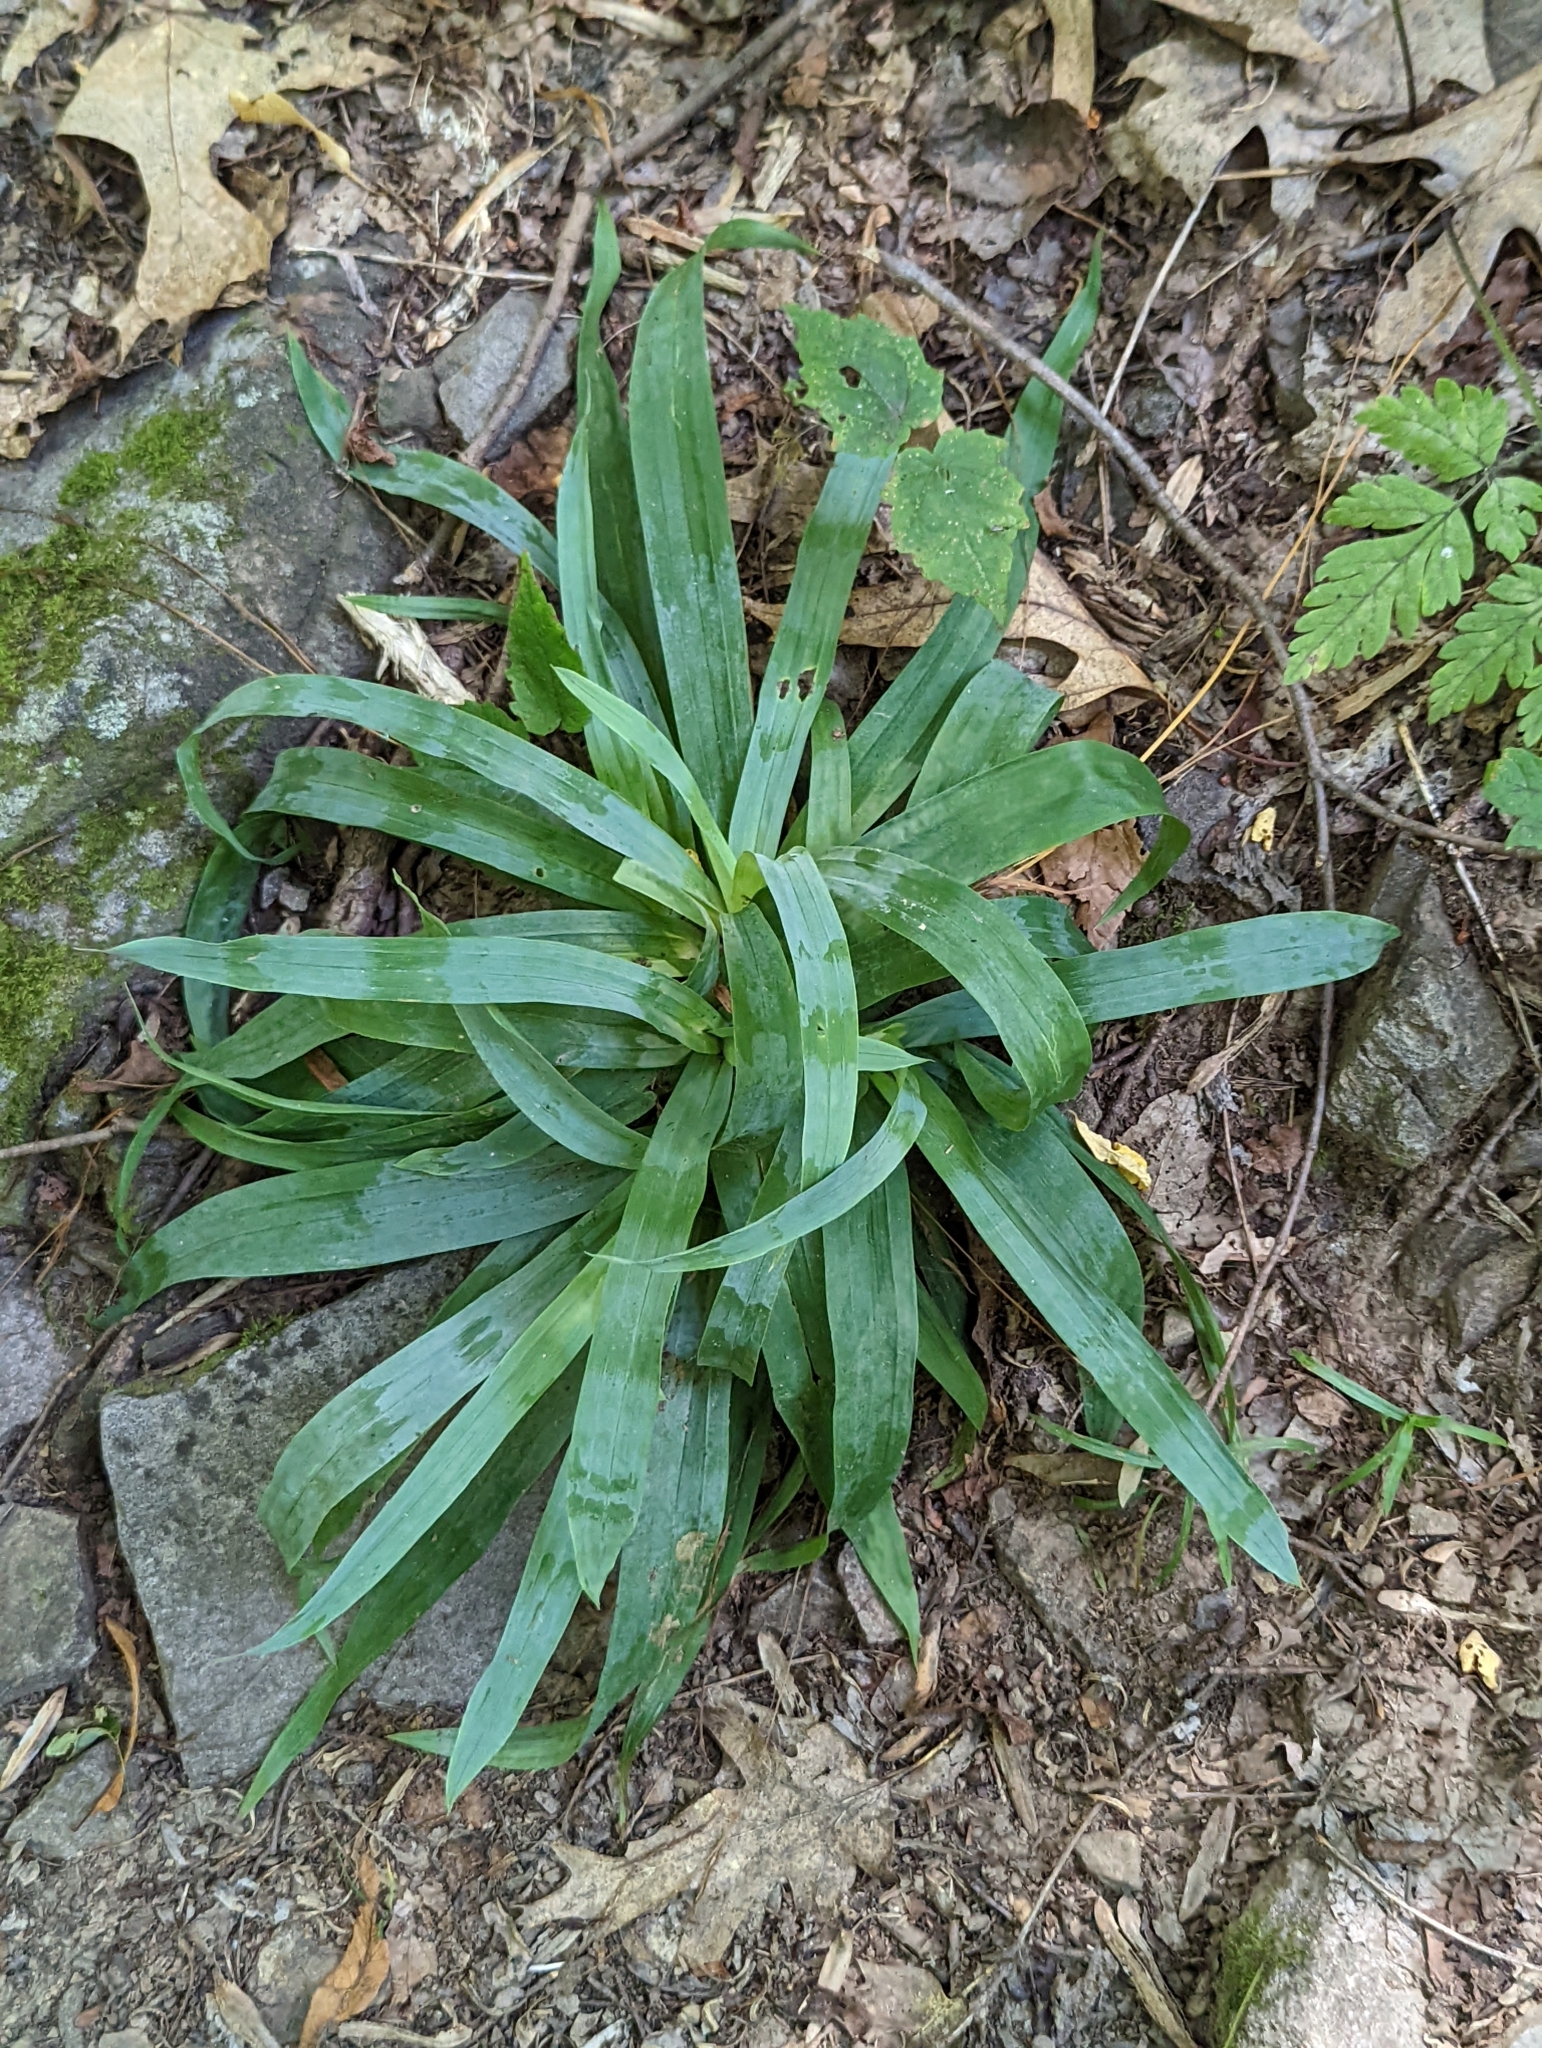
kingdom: Plantae
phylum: Tracheophyta
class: Liliopsida
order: Poales
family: Cyperaceae
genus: Carex
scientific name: Carex platyphylla
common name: Broad-leaved sedge
